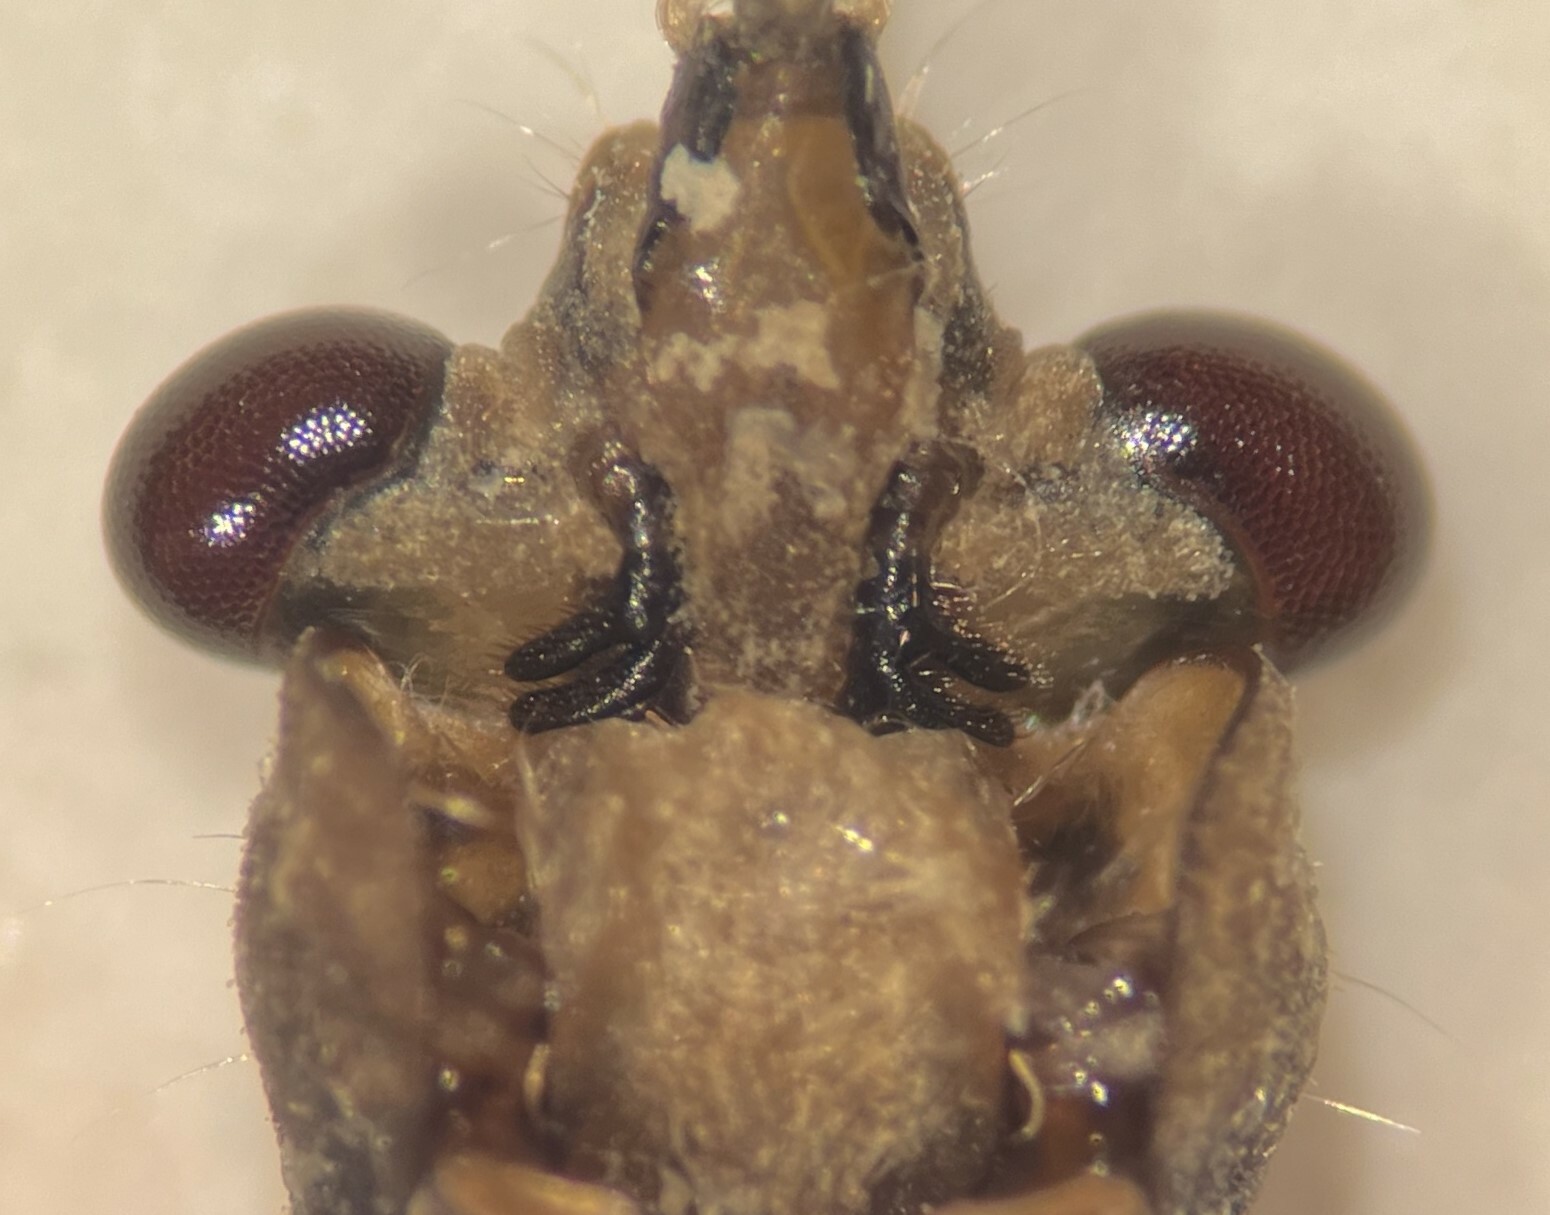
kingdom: Animalia
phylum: Arthropoda
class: Insecta
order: Hemiptera
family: Nepidae
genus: Ranatra
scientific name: Ranatra australis
